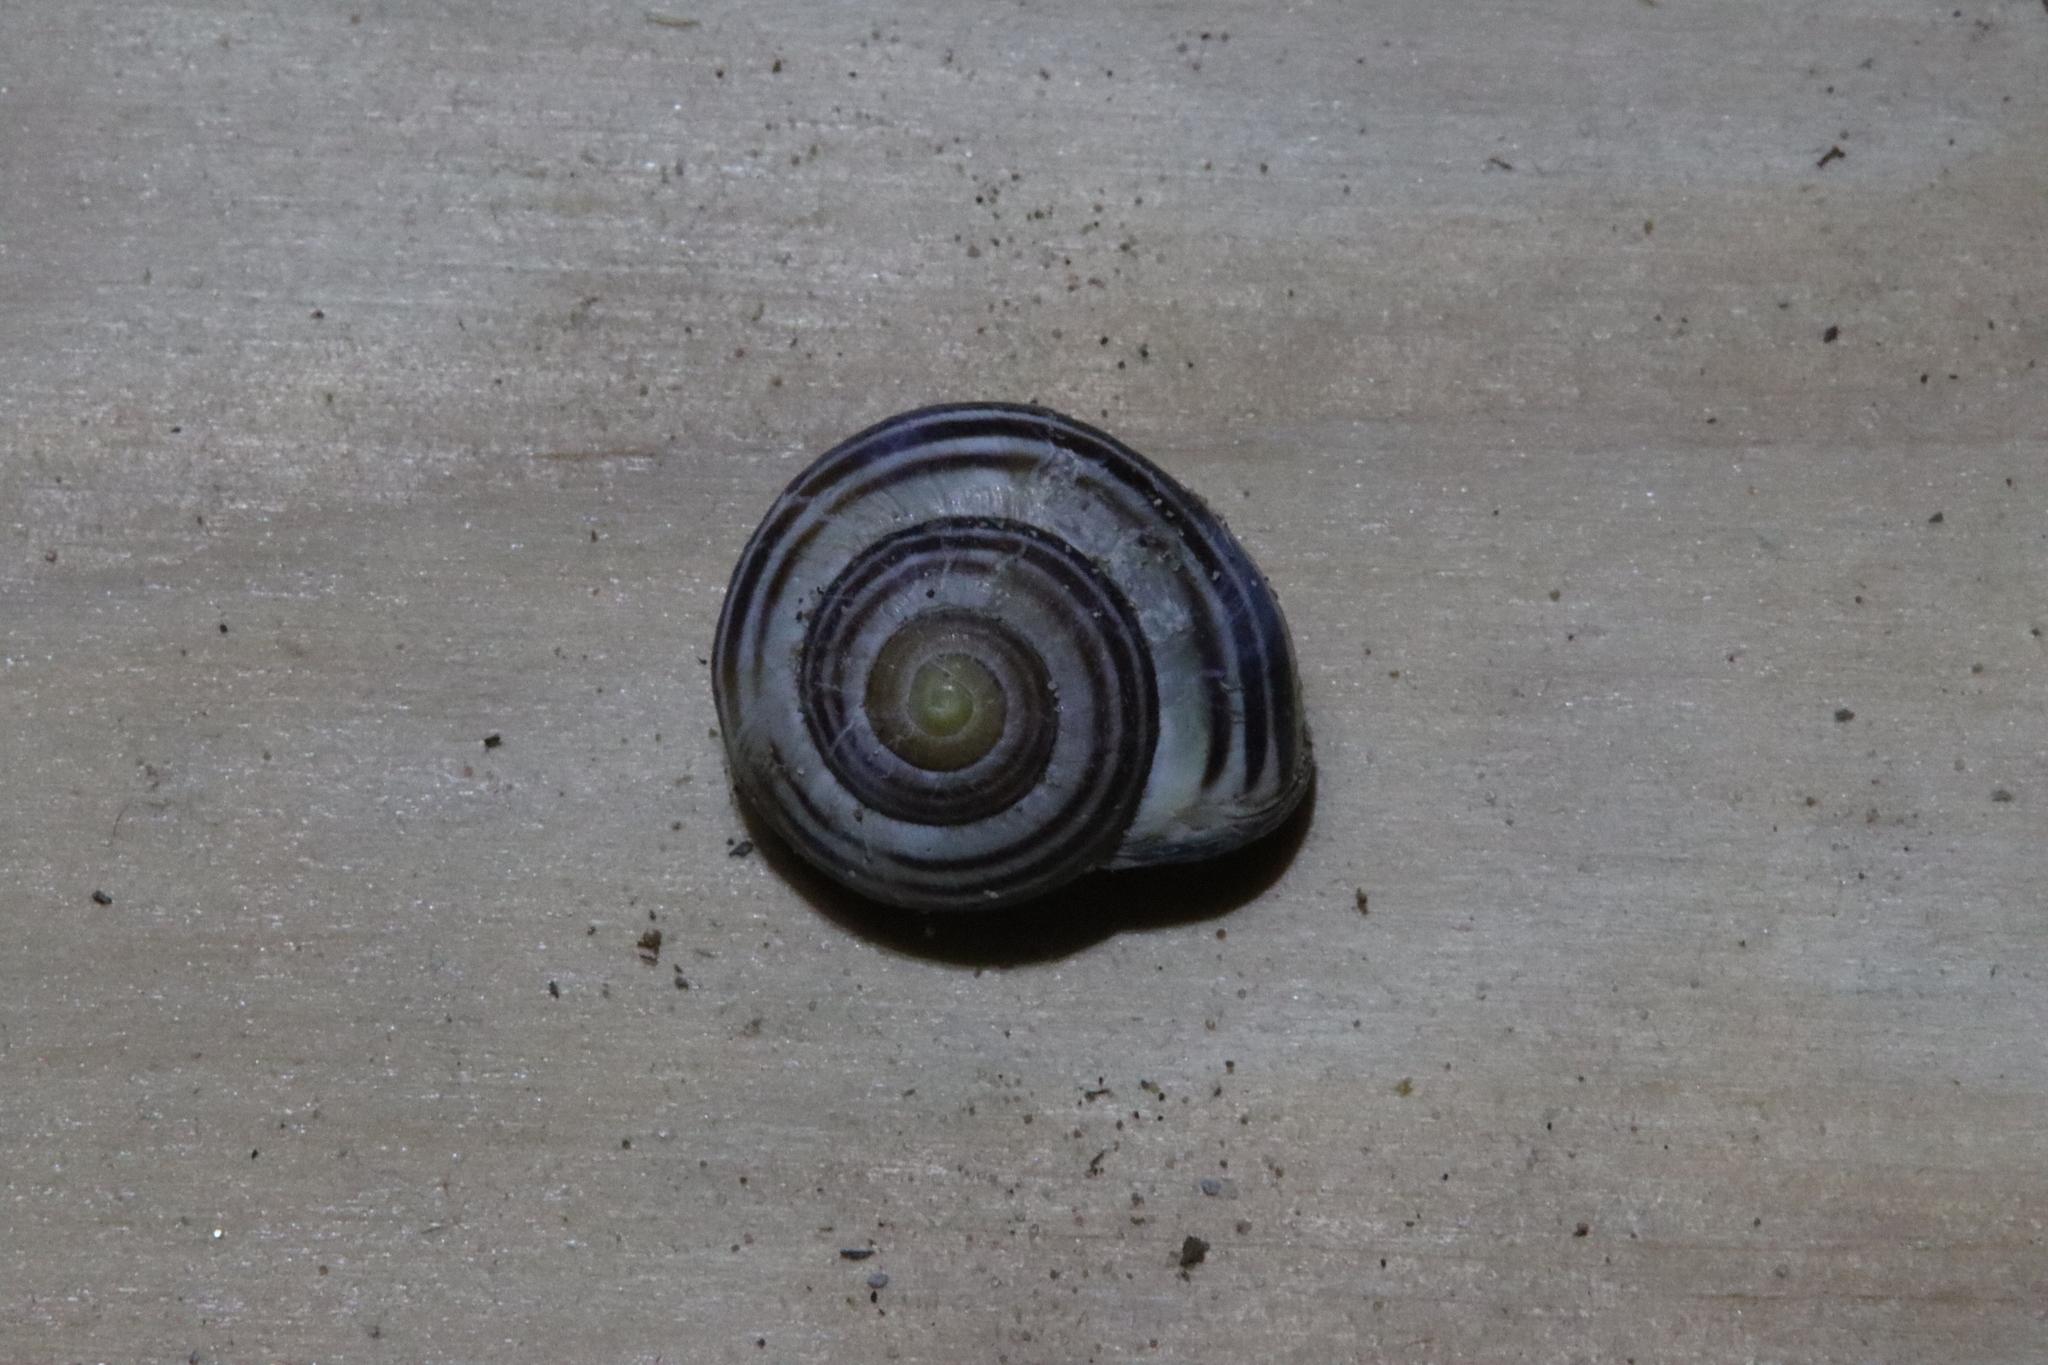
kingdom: Animalia
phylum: Mollusca
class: Gastropoda
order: Stylommatophora
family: Helicidae
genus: Cepaea
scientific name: Cepaea nemoralis
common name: Grovesnail
